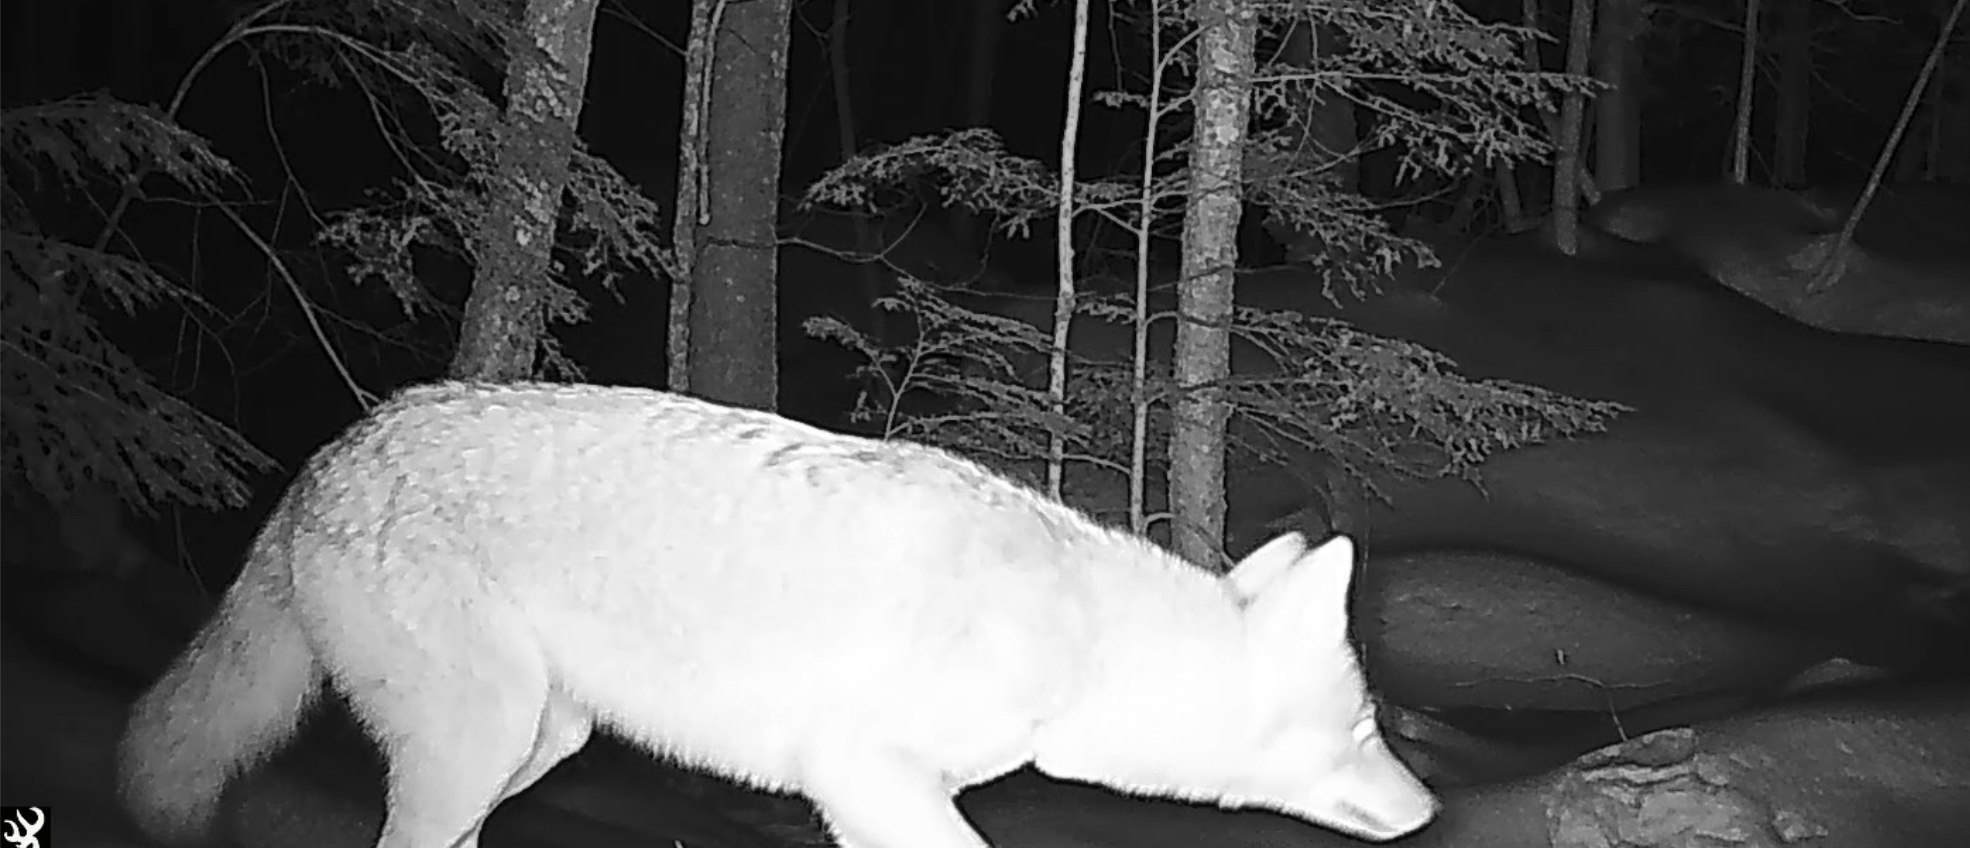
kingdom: Animalia
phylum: Chordata
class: Mammalia
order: Carnivora
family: Canidae
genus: Canis
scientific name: Canis latrans
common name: Coyote
